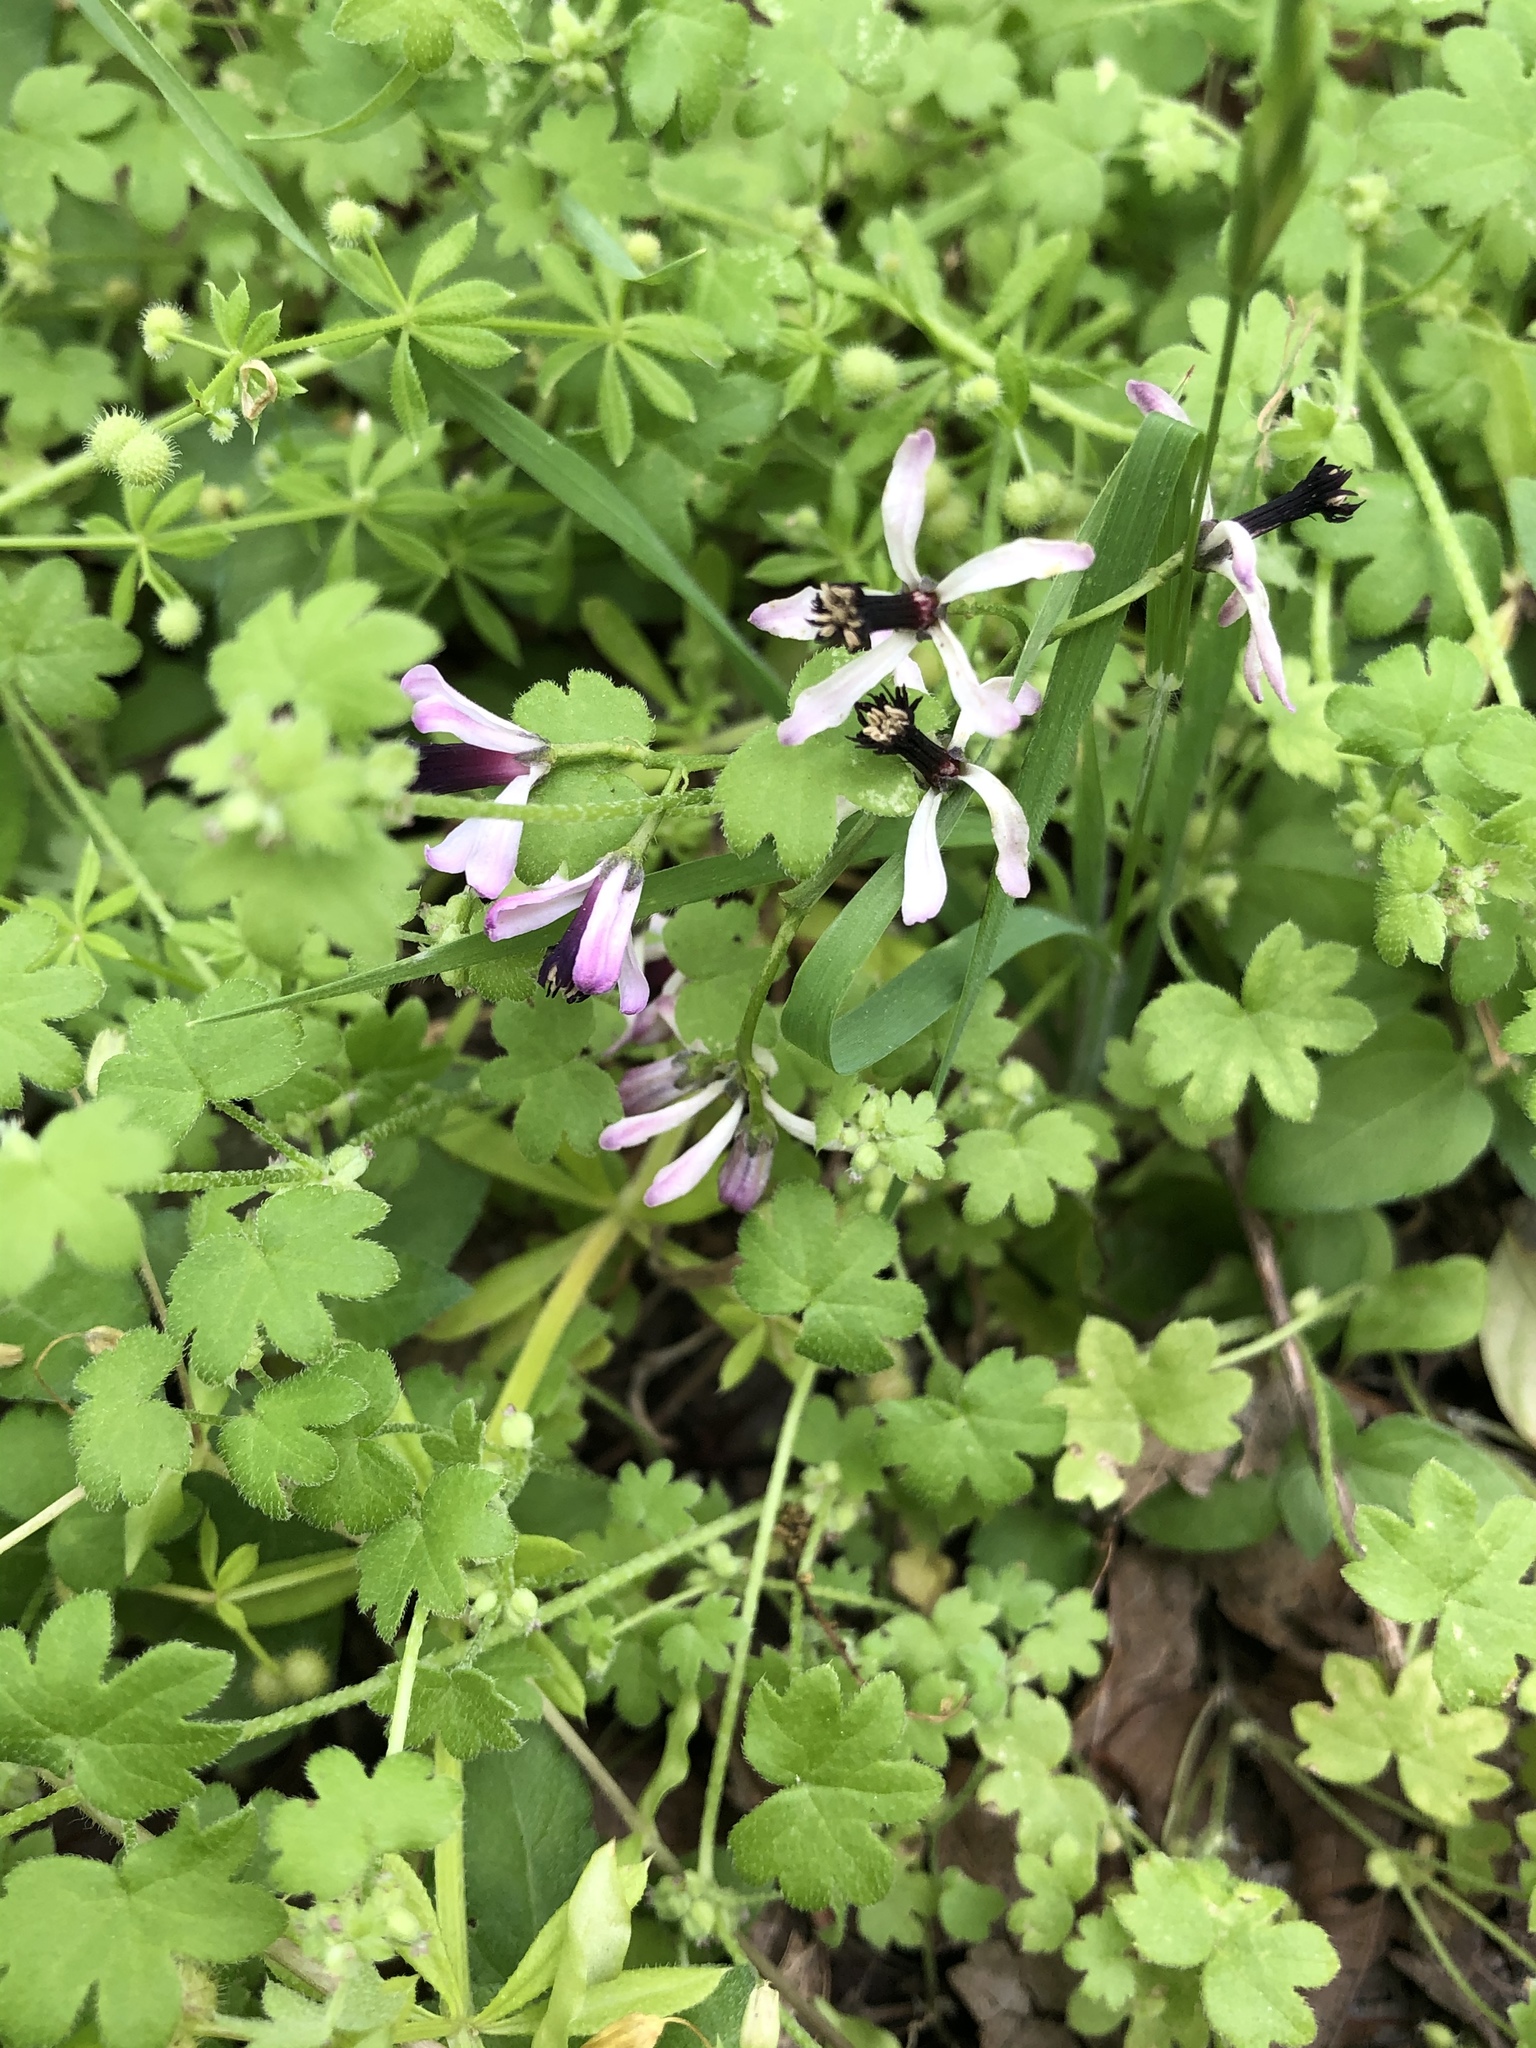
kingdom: Plantae
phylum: Tracheophyta
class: Magnoliopsida
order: Sapindales
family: Meliaceae
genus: Melia
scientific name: Melia azedarach
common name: Chinaberrytree
